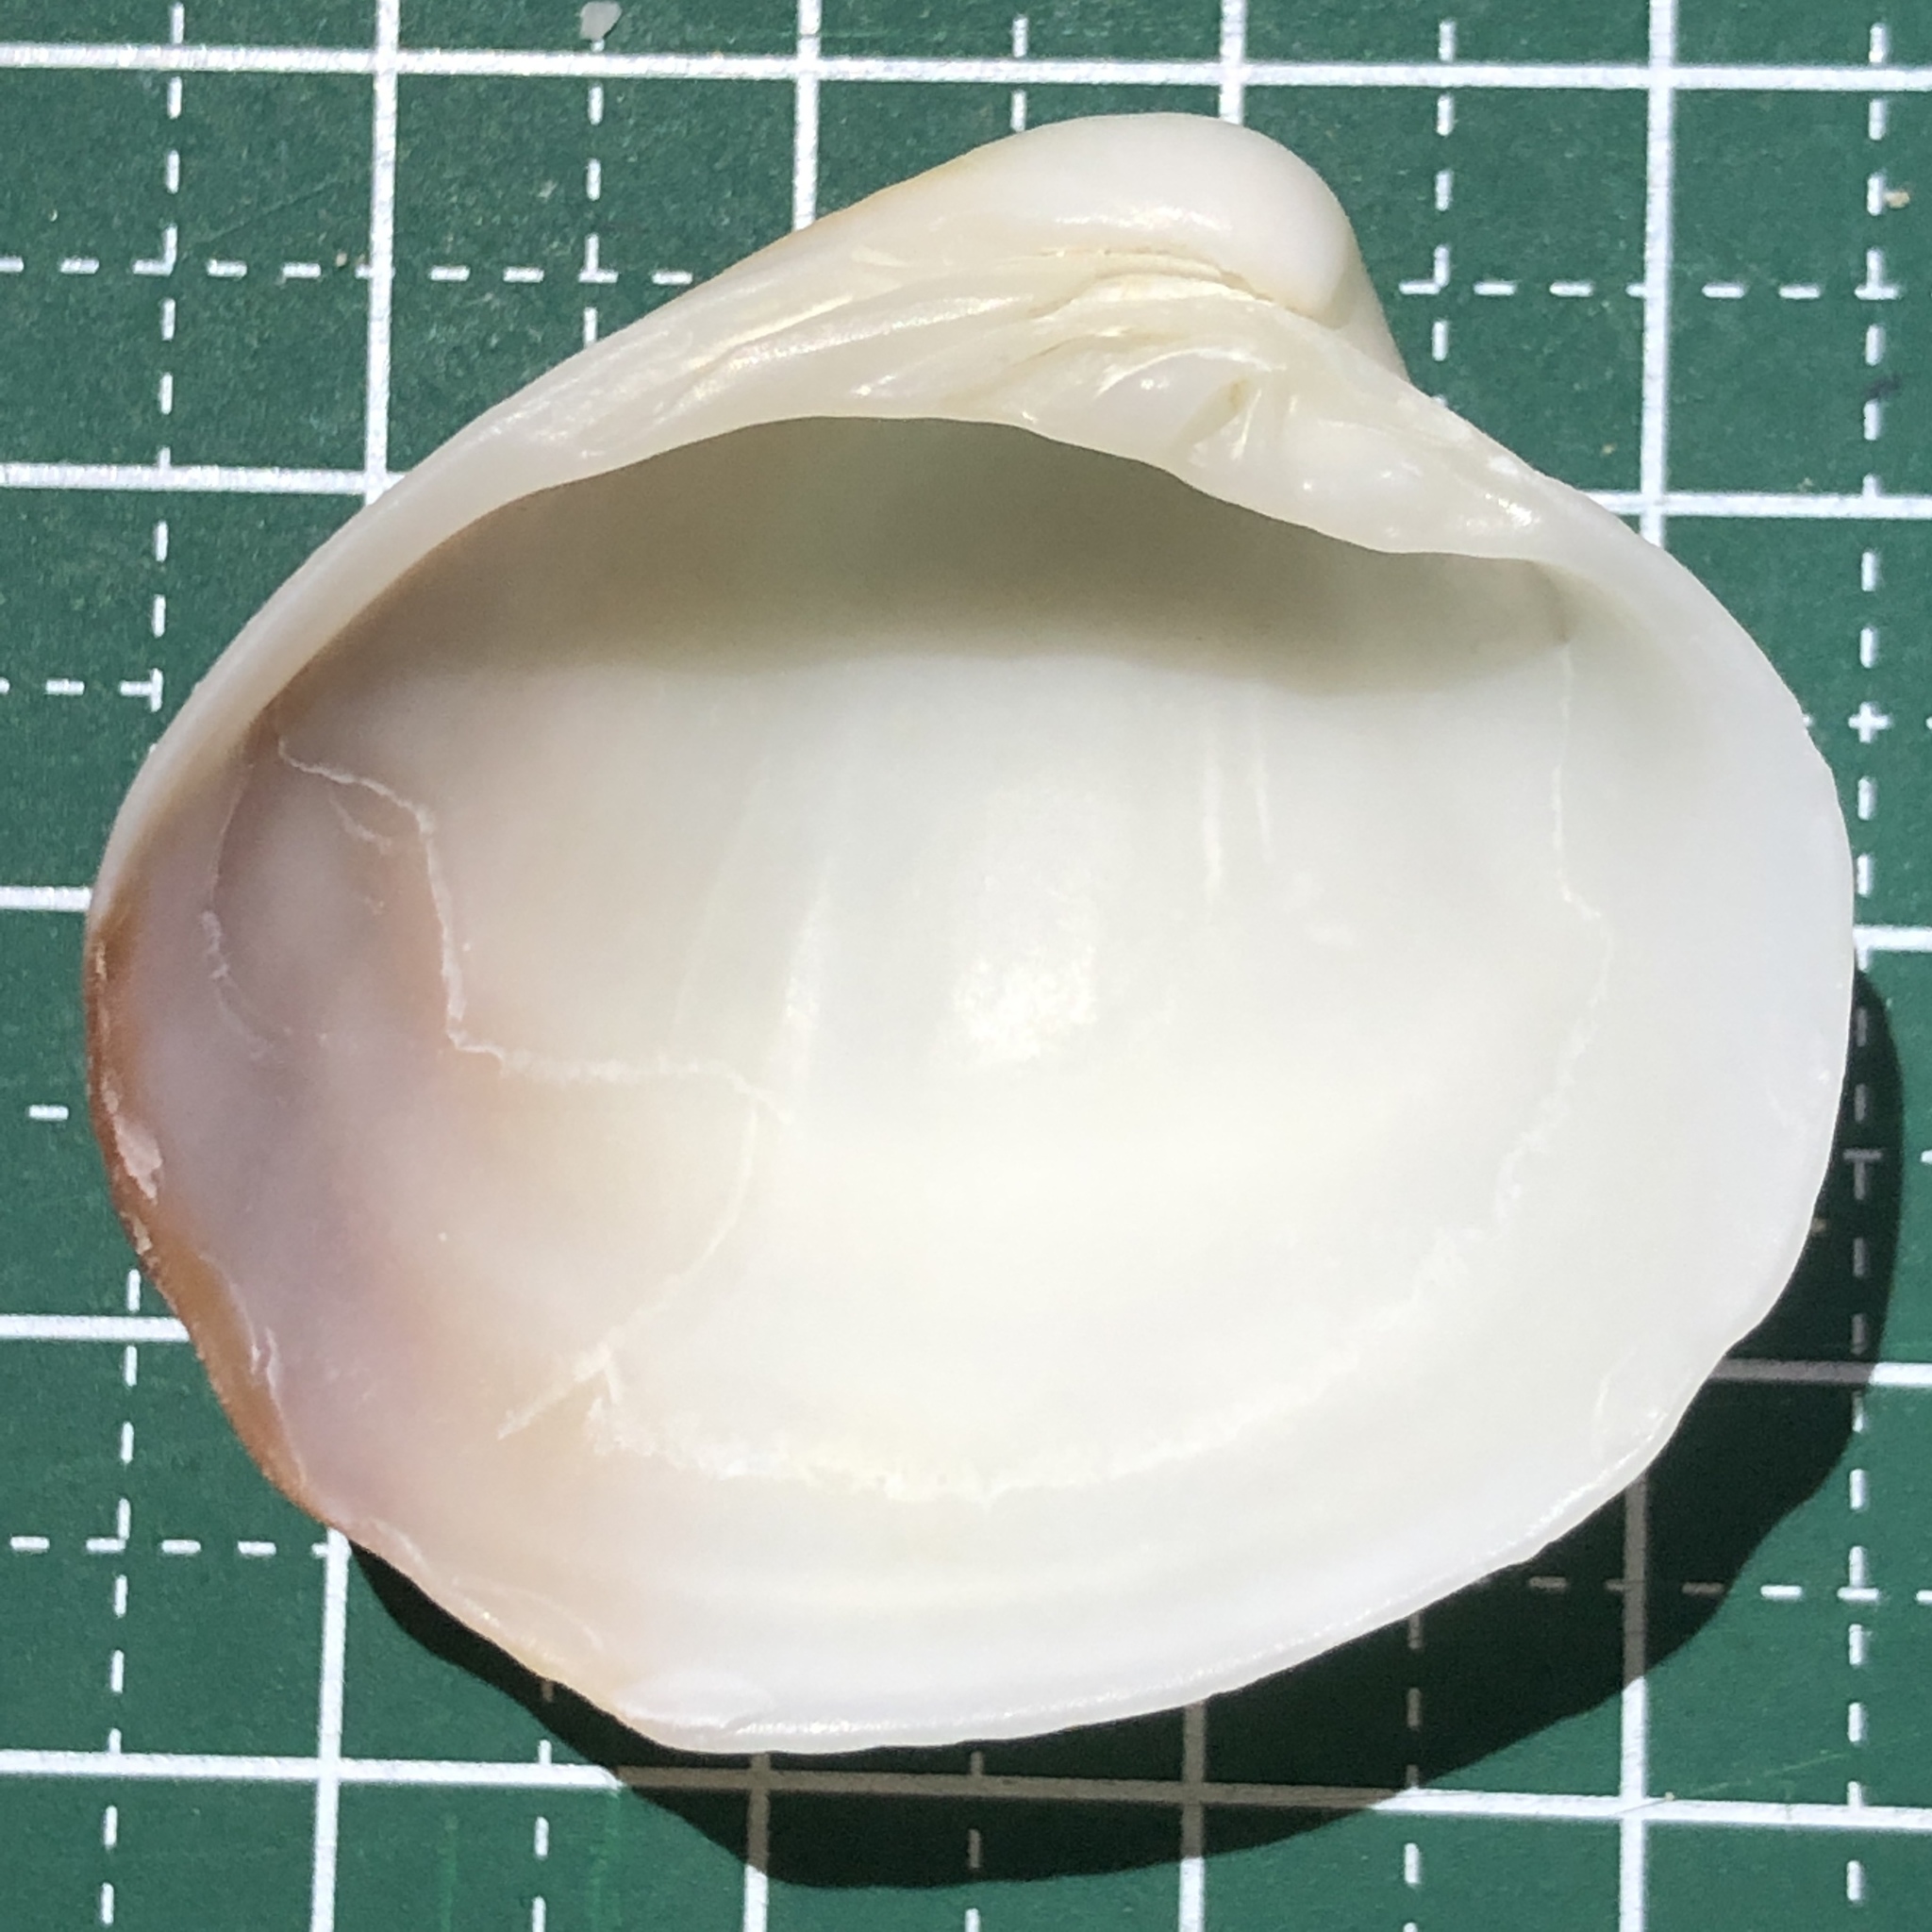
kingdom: Animalia
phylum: Mollusca
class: Bivalvia
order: Venerida
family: Veneridae
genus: Pitar
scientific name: Pitar citrinus
